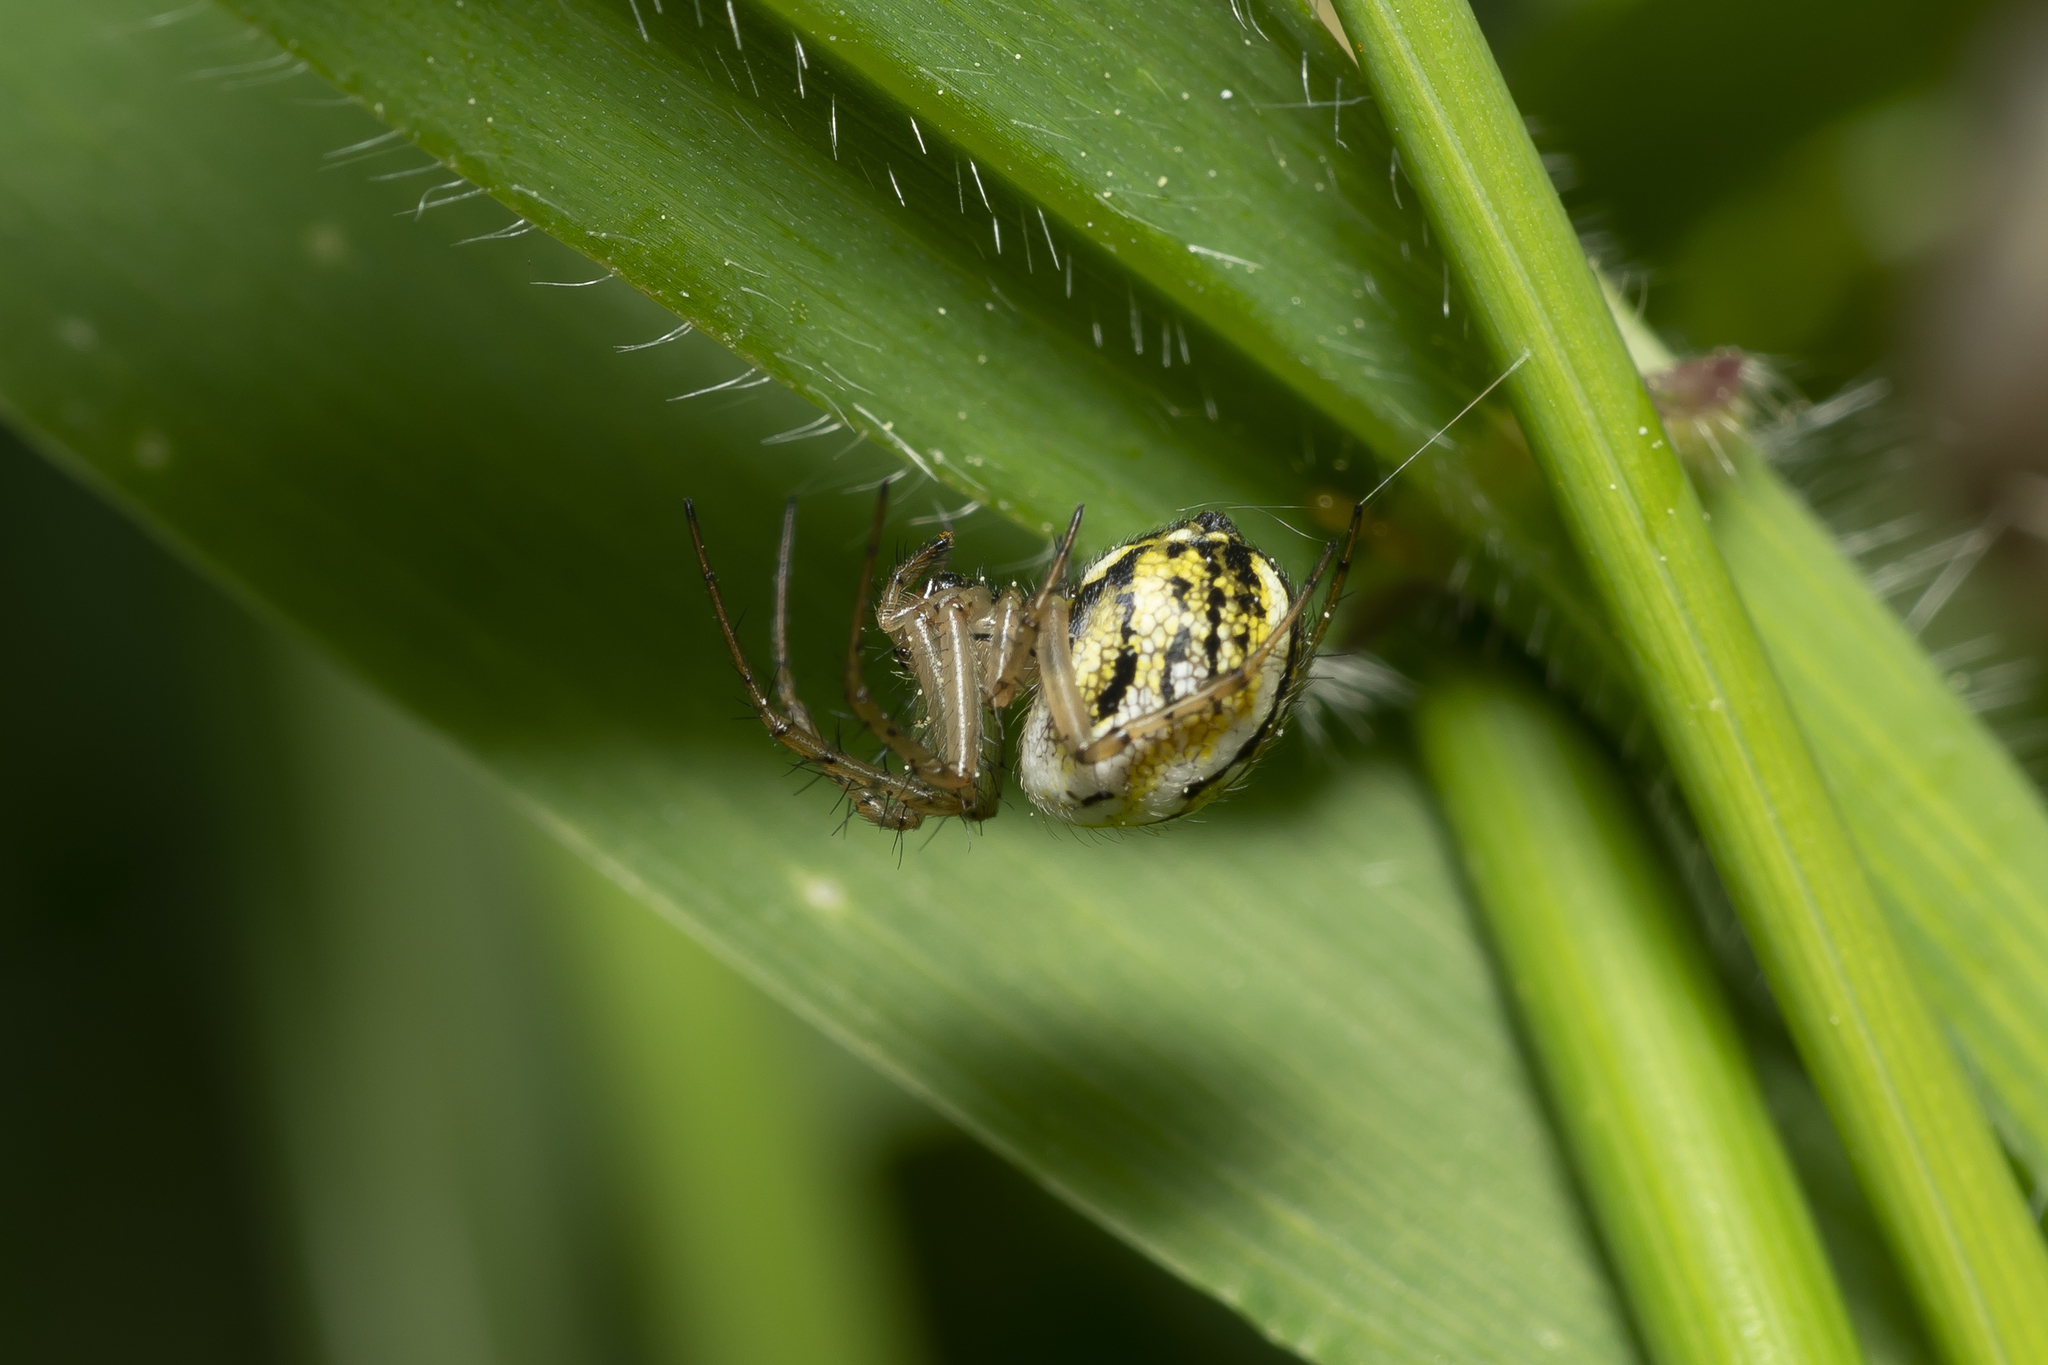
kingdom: Animalia
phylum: Arthropoda
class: Arachnida
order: Araneae
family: Araneidae
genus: Mangora
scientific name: Mangora acalypha
